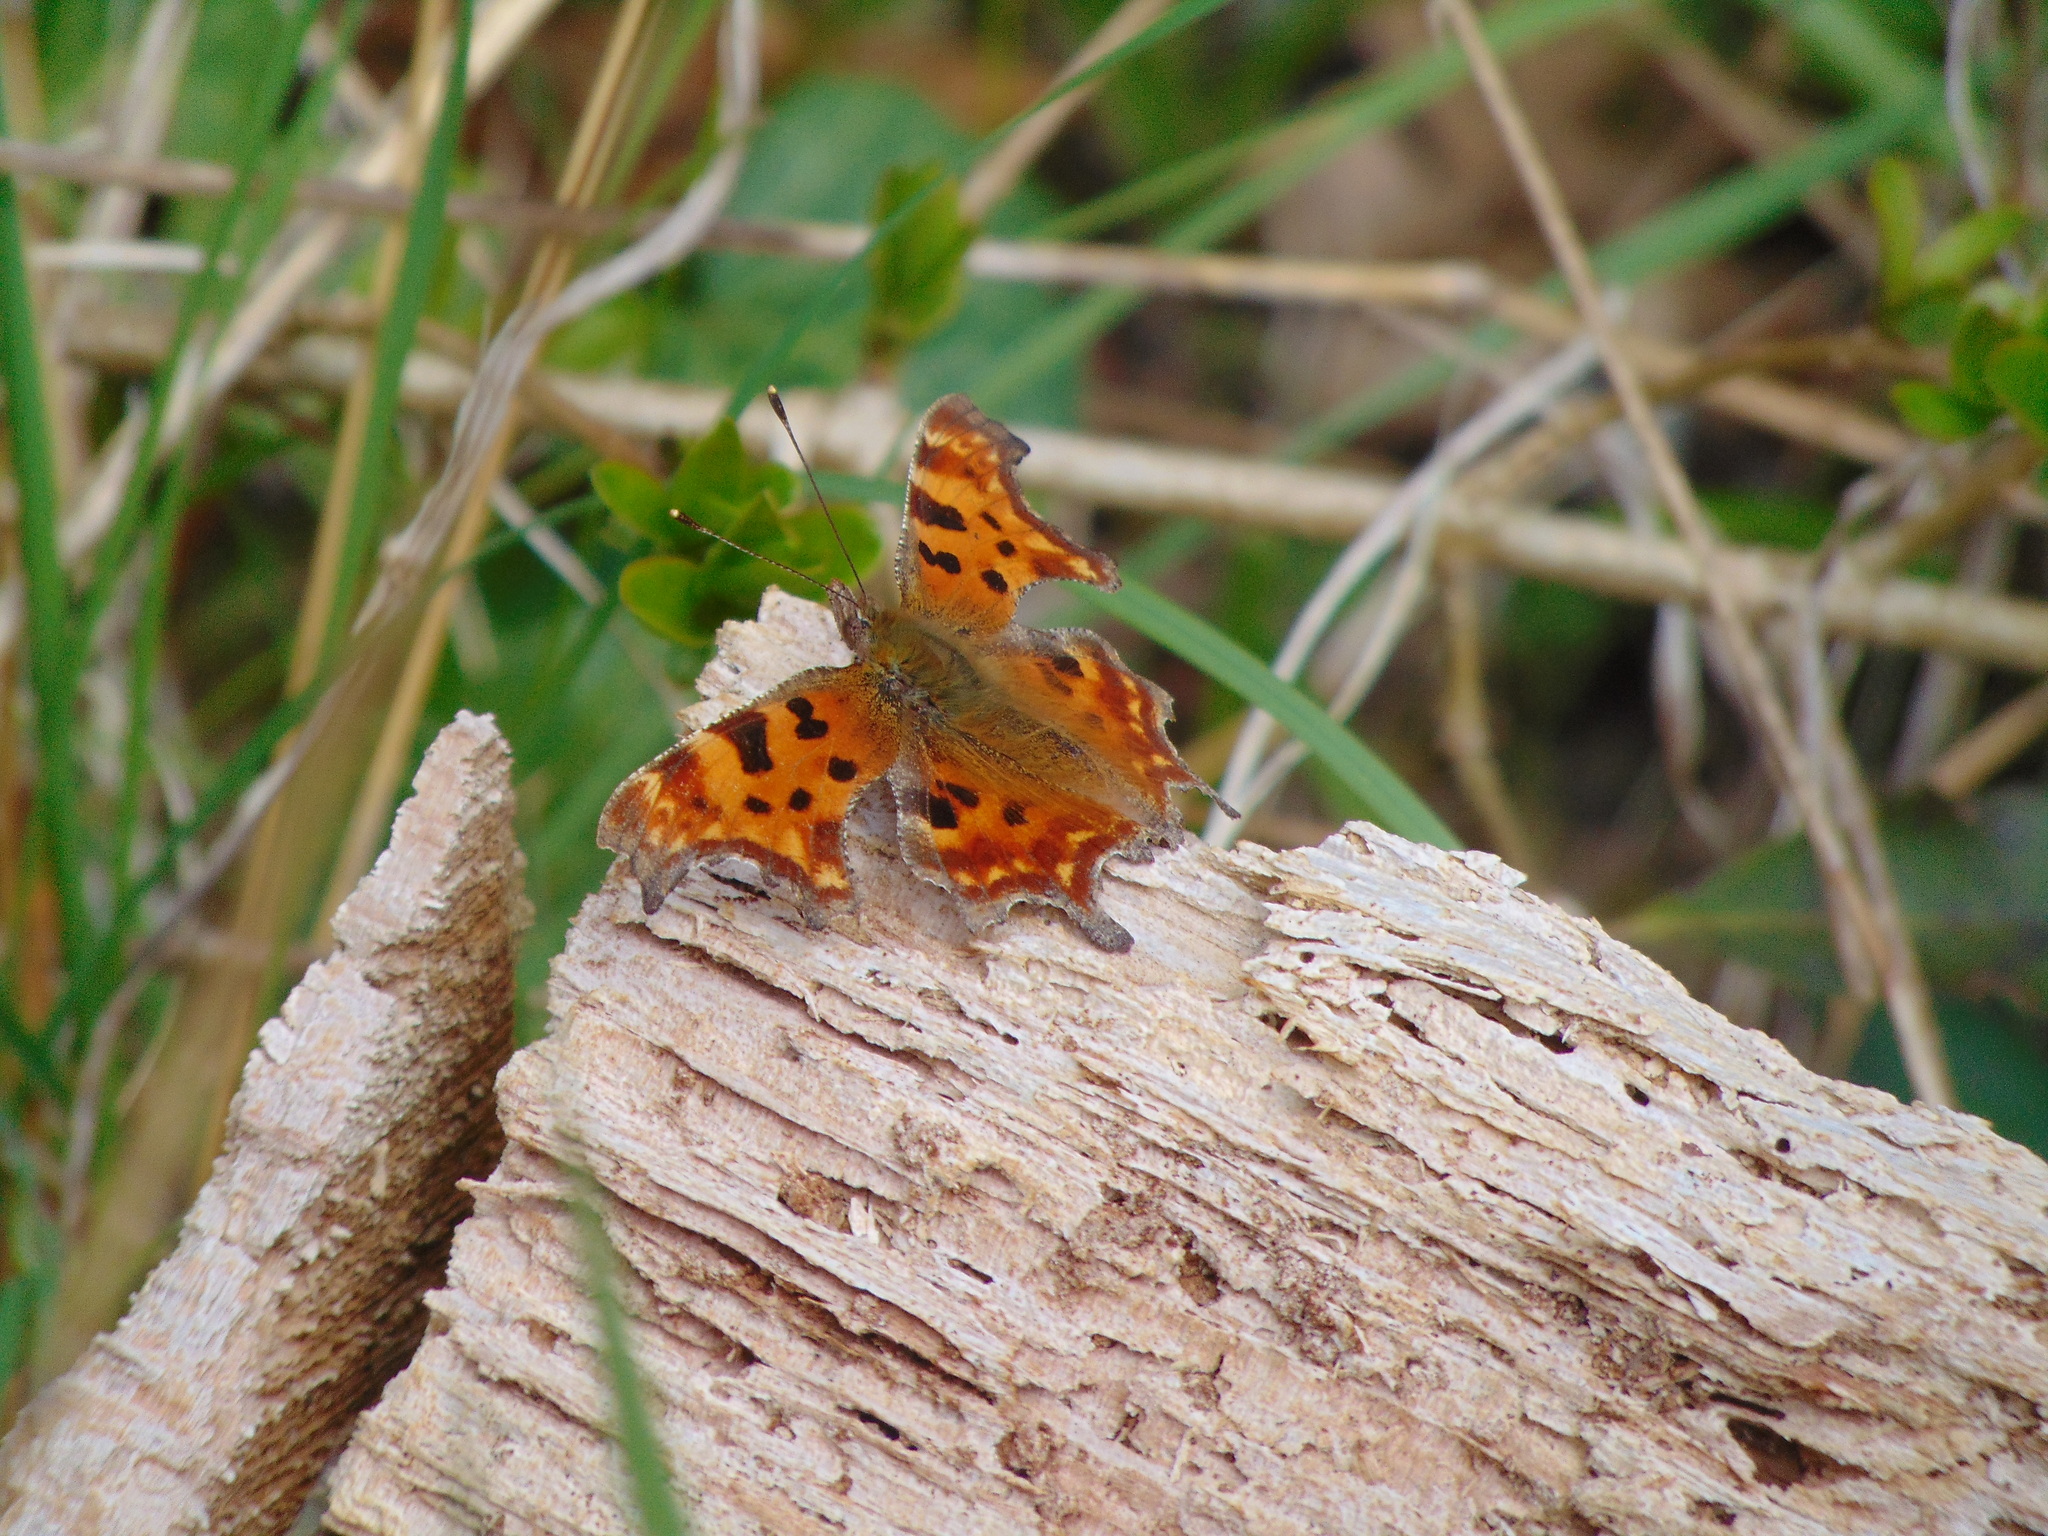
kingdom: Animalia
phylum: Arthropoda
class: Insecta
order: Lepidoptera
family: Nymphalidae
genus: Polygonia
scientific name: Polygonia c-album
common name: Comma
